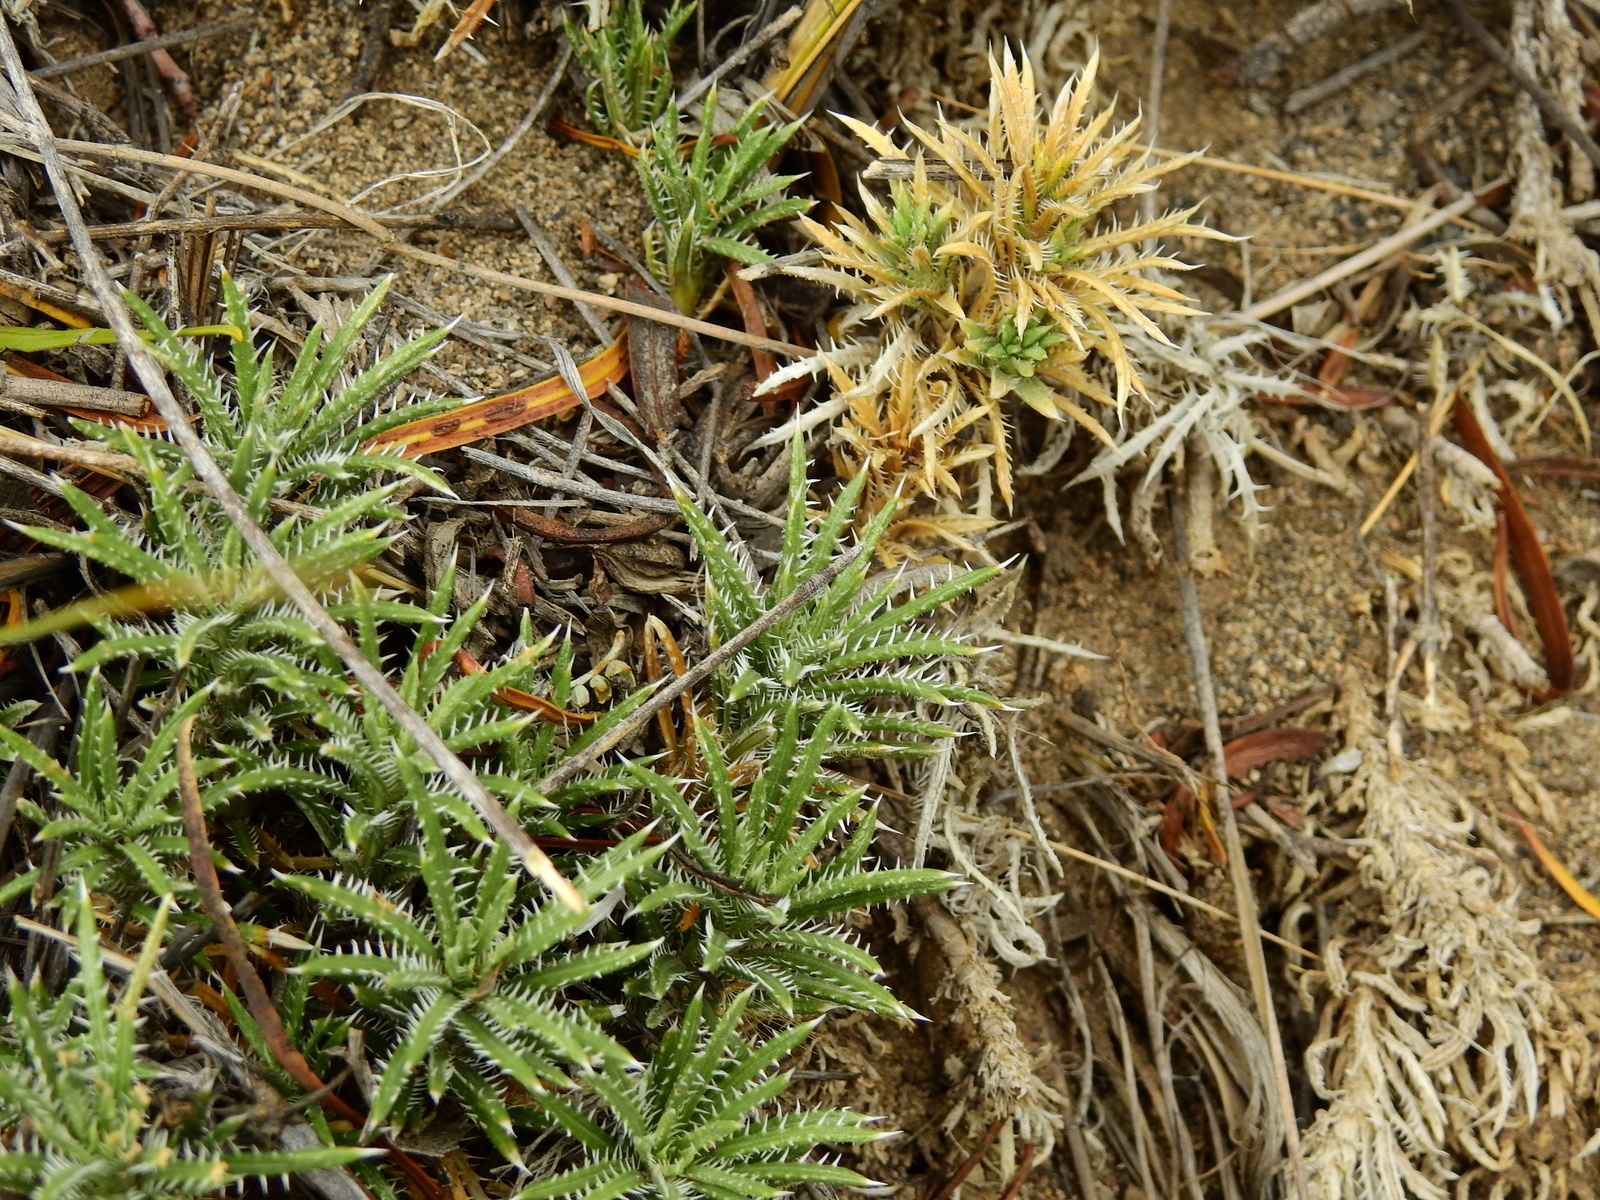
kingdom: Plantae
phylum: Tracheophyta
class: Magnoliopsida
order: Asterales
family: Asteraceae
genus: Perezia
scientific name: Perezia recurvata
